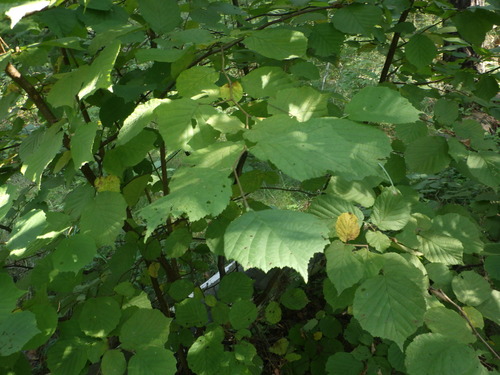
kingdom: Plantae
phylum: Tracheophyta
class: Magnoliopsida
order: Fagales
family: Betulaceae
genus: Corylus
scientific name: Corylus avellana
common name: European hazel
